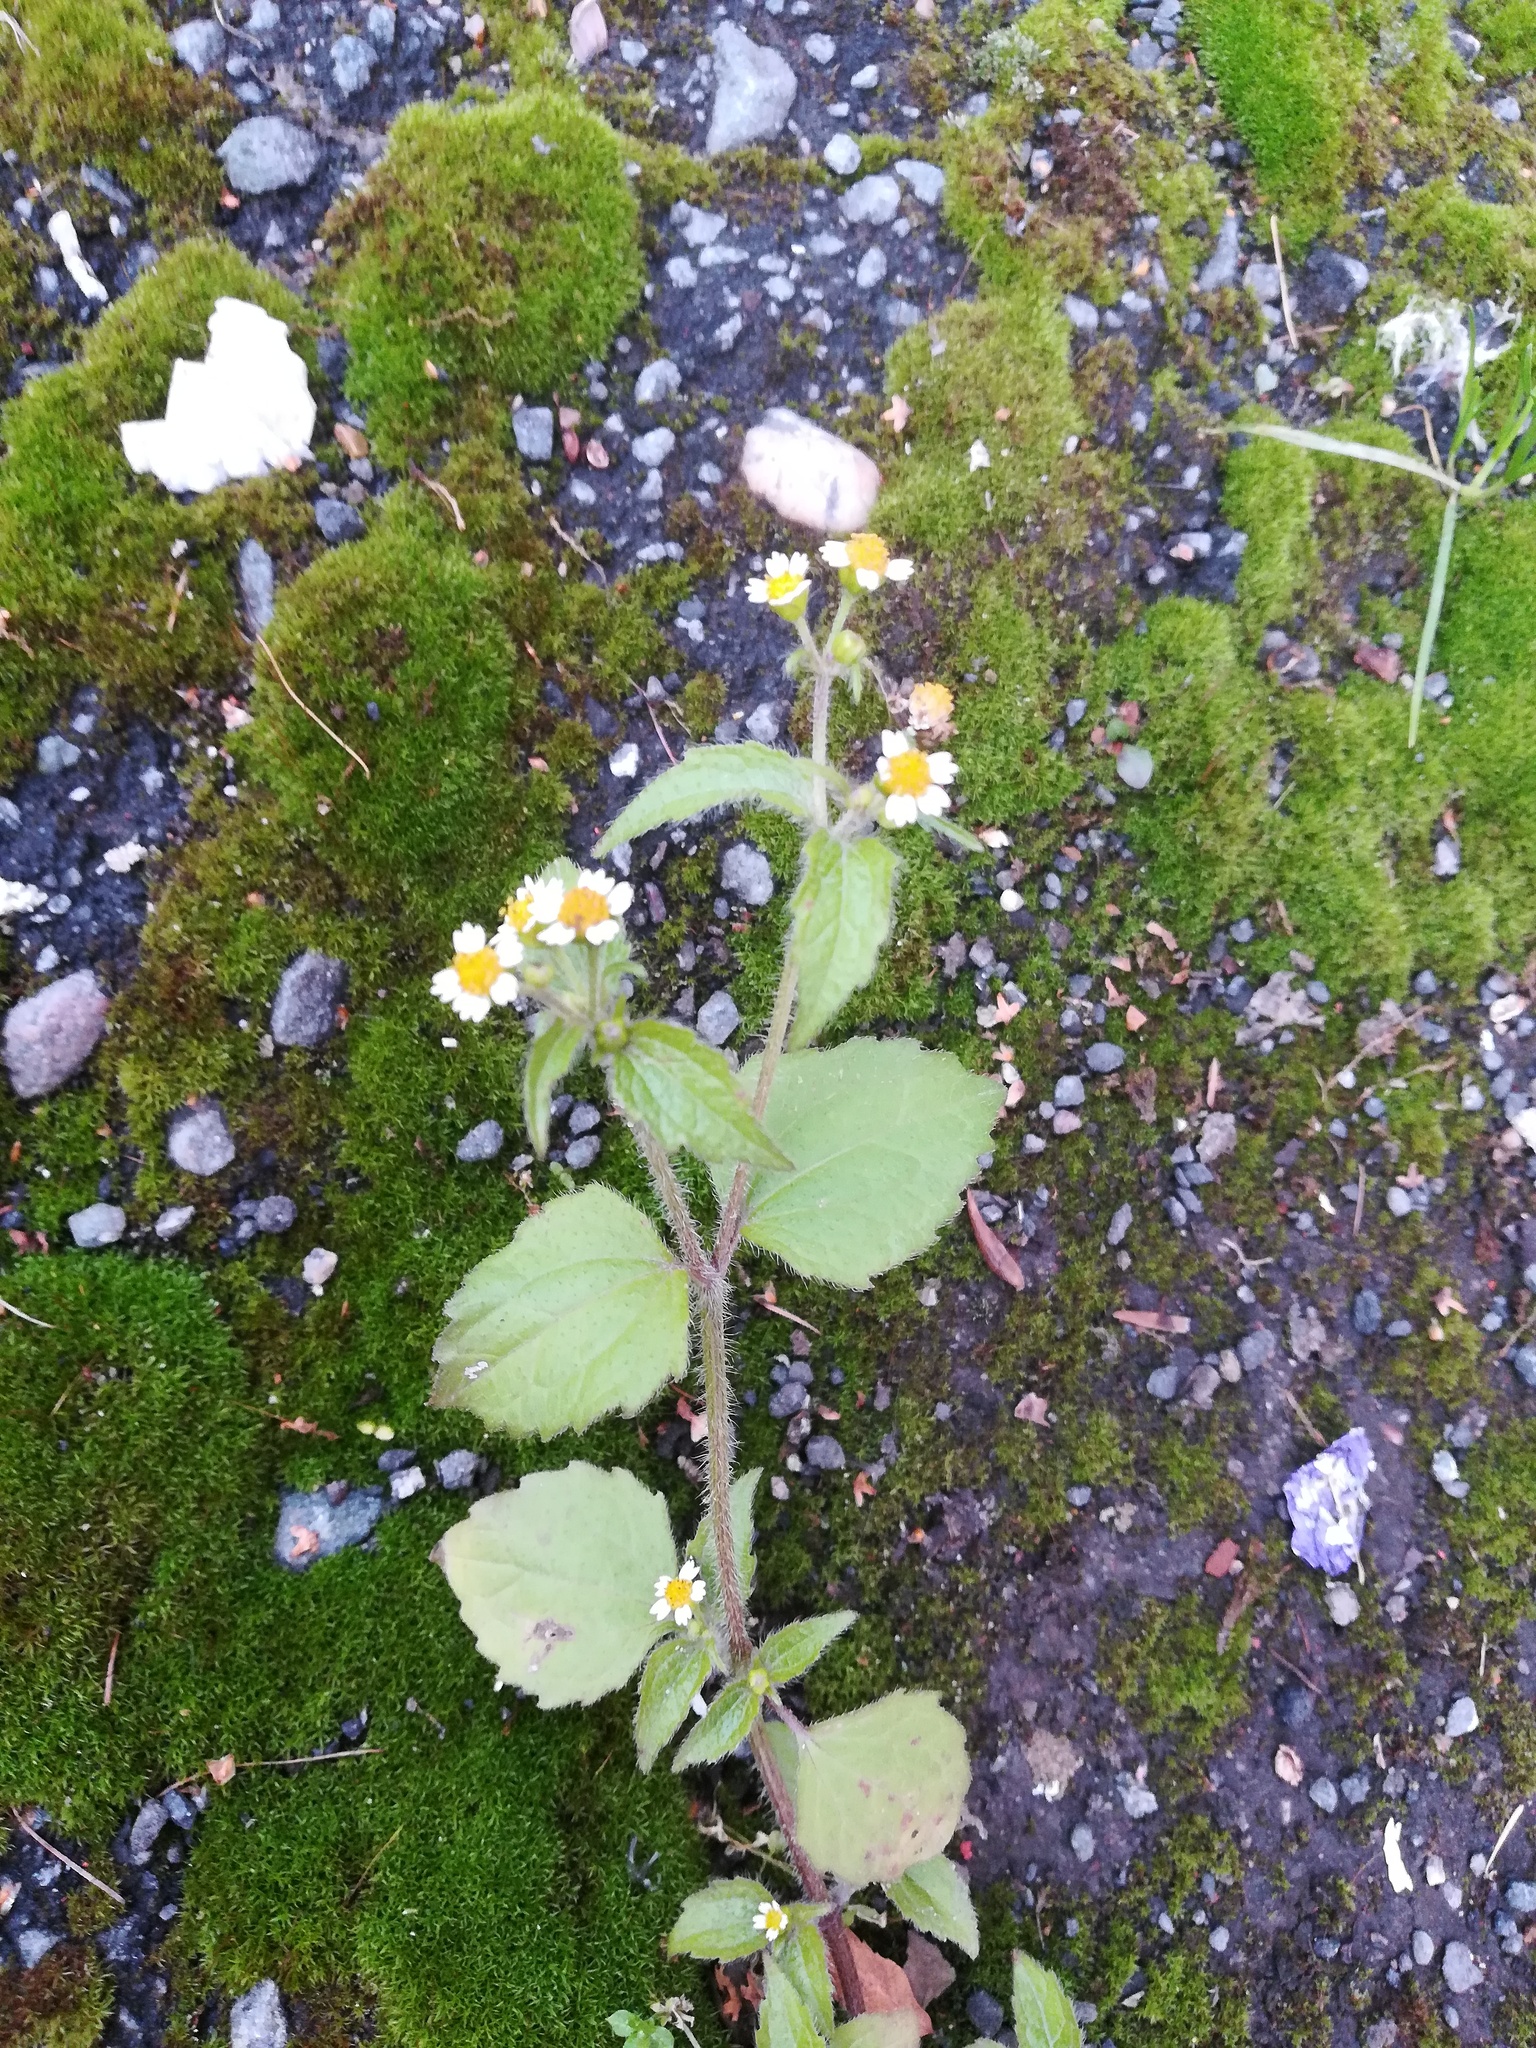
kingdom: Plantae
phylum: Tracheophyta
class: Magnoliopsida
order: Asterales
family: Asteraceae
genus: Galinsoga
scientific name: Galinsoga quadriradiata
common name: Shaggy soldier
